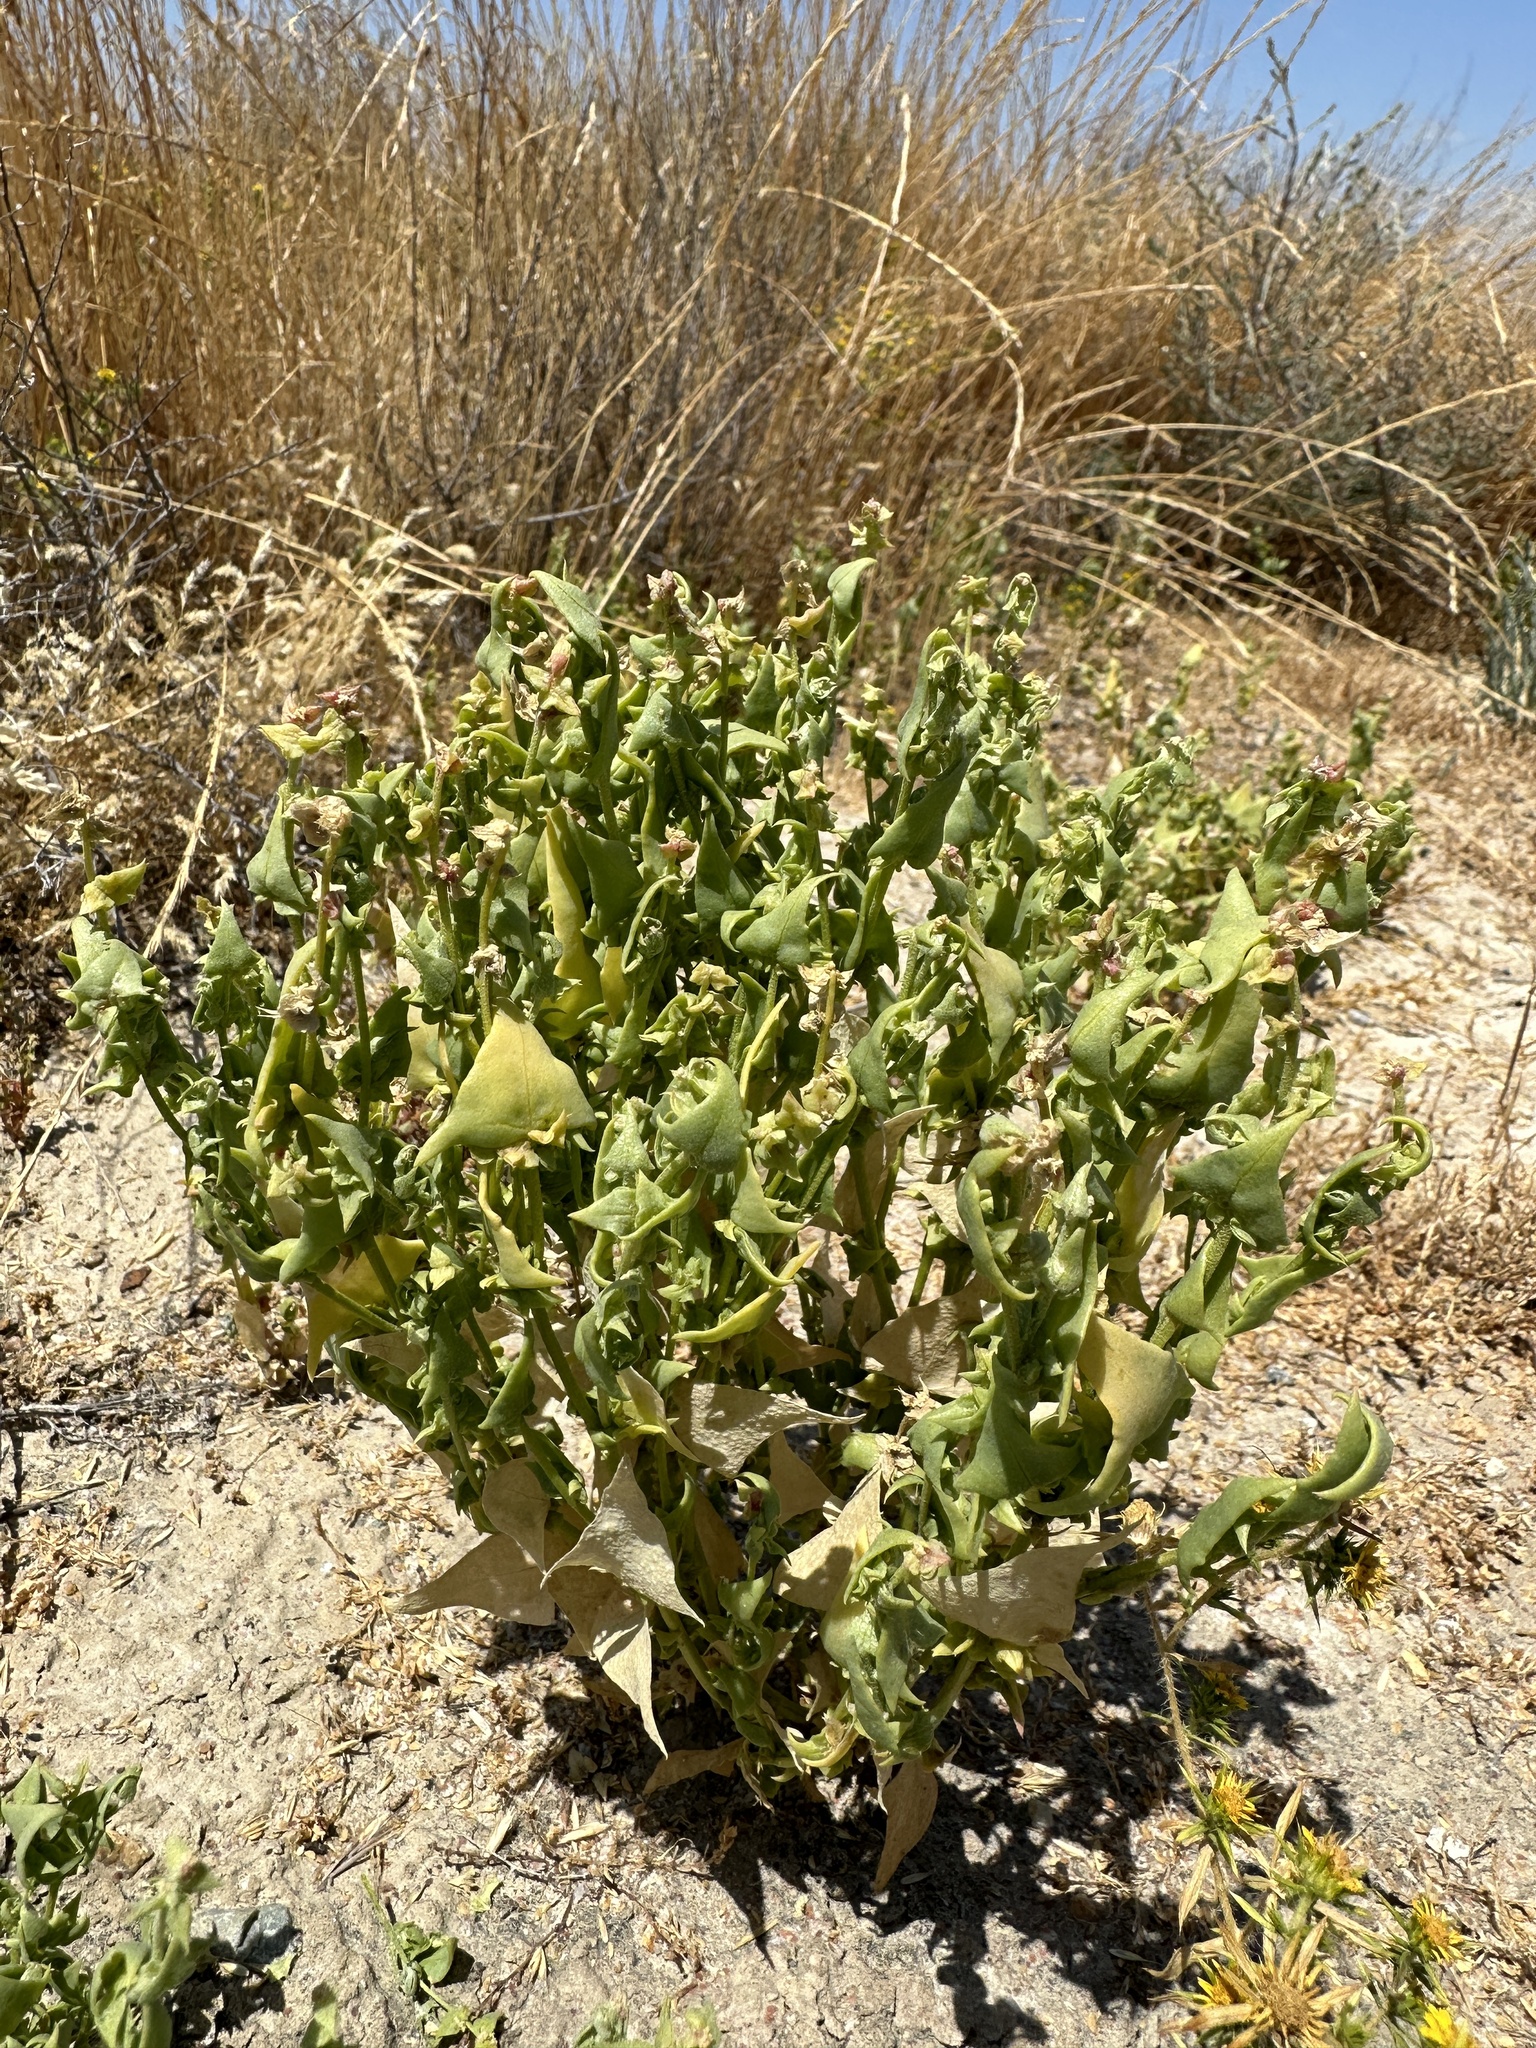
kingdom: Plantae
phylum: Tracheophyta
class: Magnoliopsida
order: Caryophyllales
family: Amaranthaceae
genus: Stutzia
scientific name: Stutzia covillei
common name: Coville's orach
